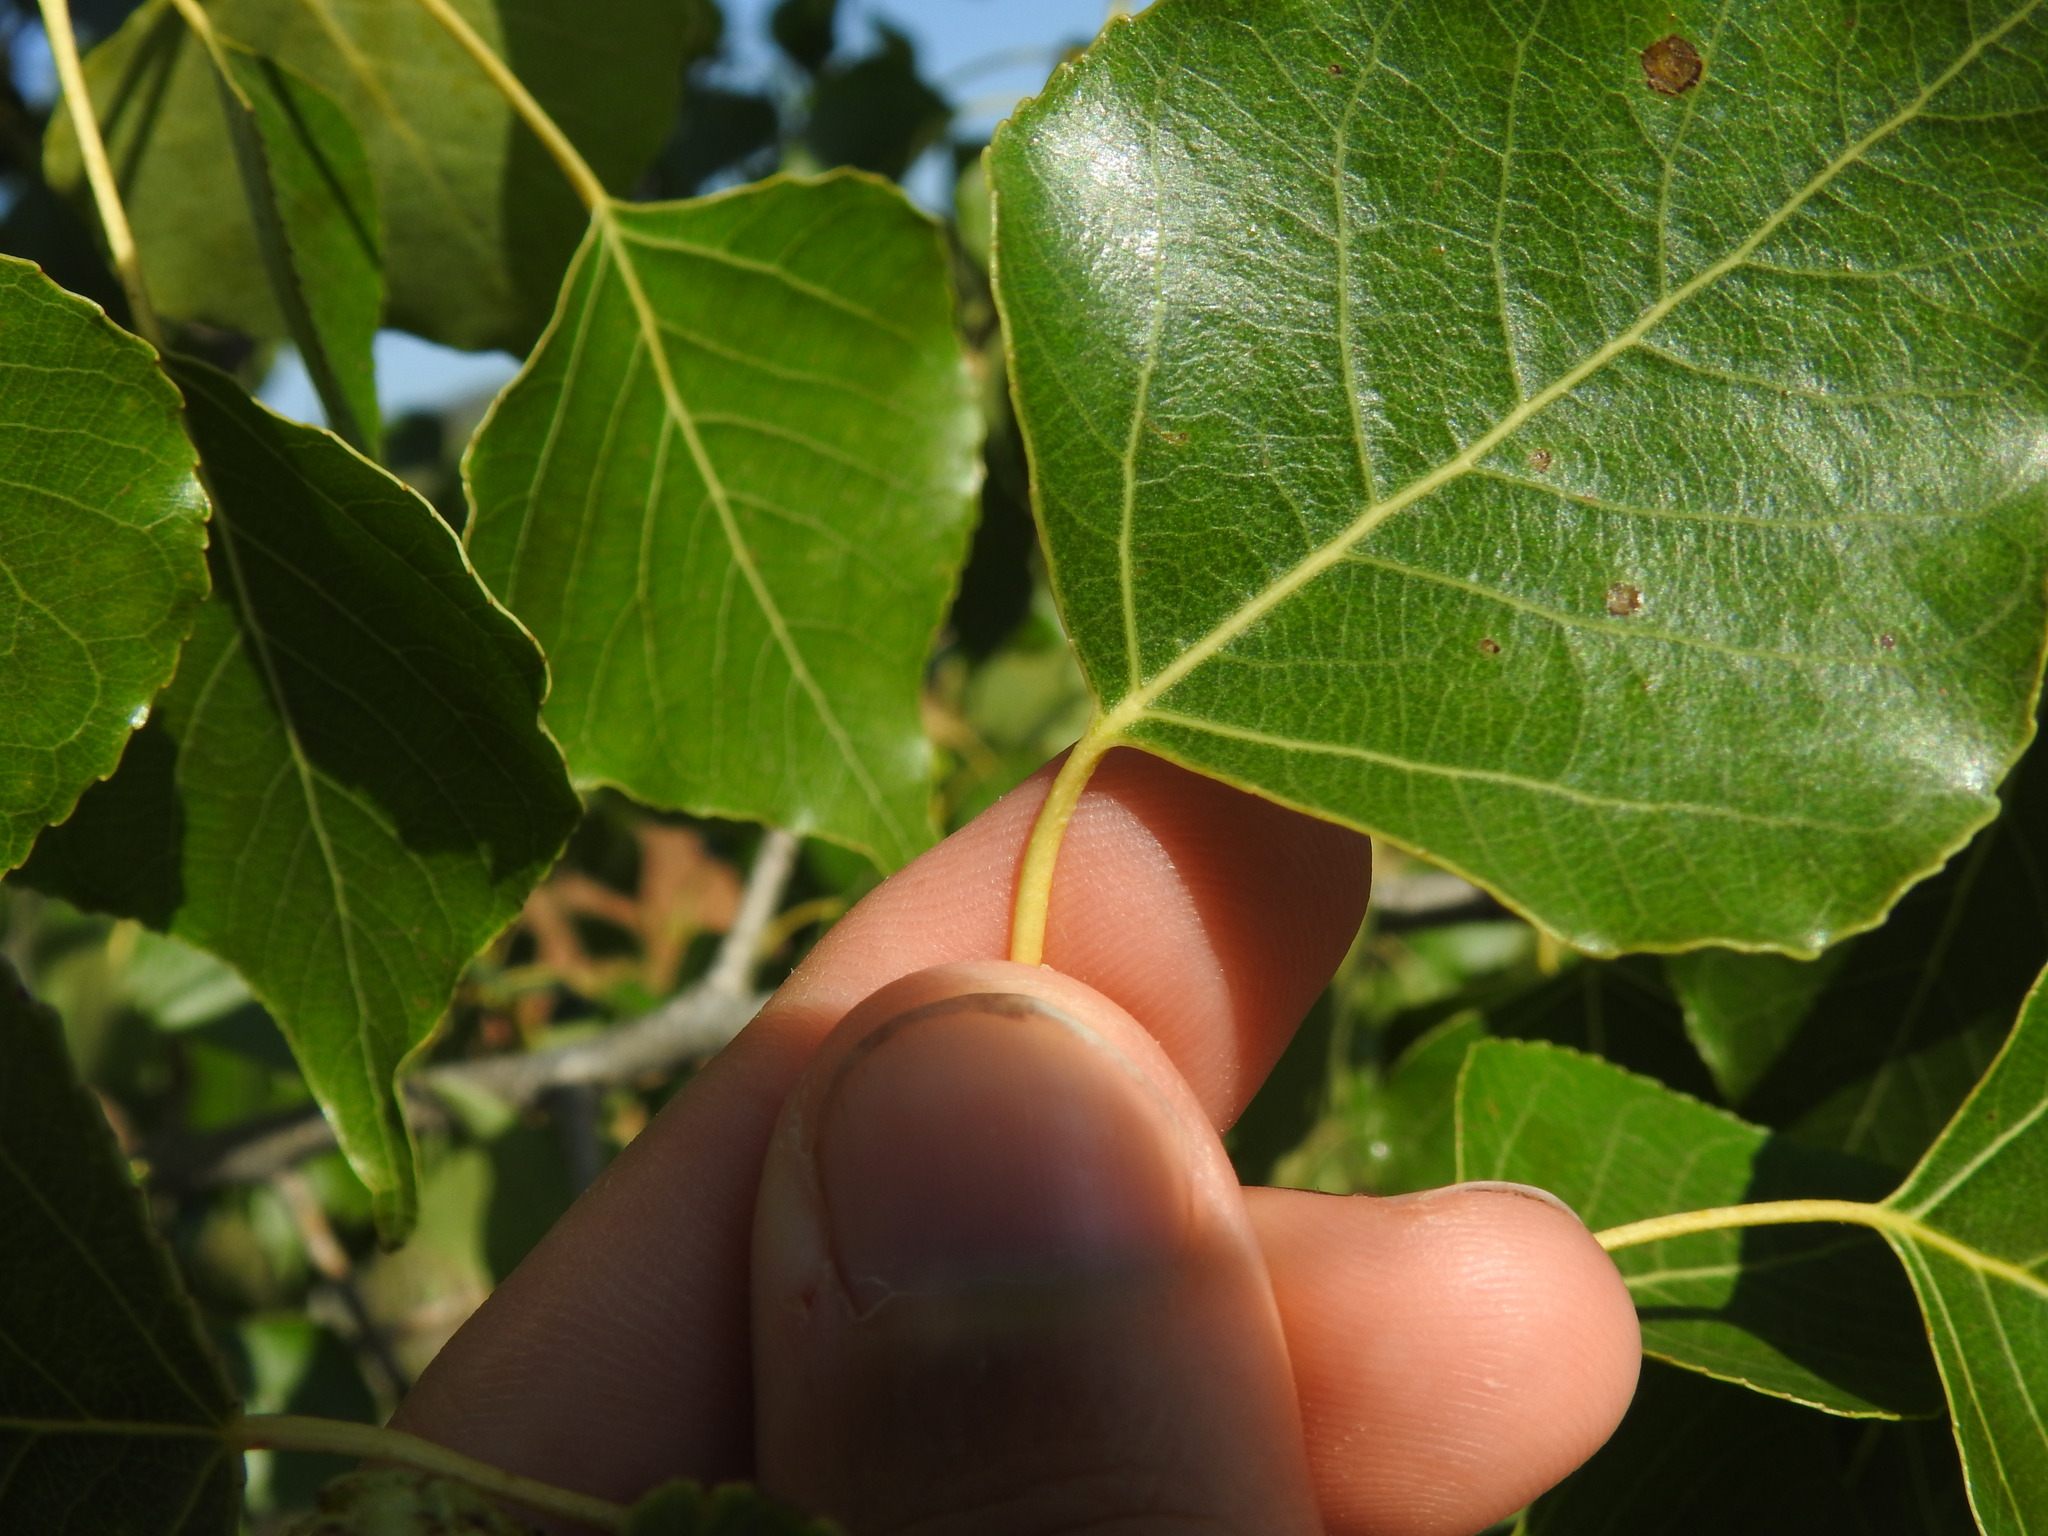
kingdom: Plantae
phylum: Tracheophyta
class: Magnoliopsida
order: Malpighiales
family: Salicaceae
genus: Populus
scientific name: Populus nigra
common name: Black poplar
